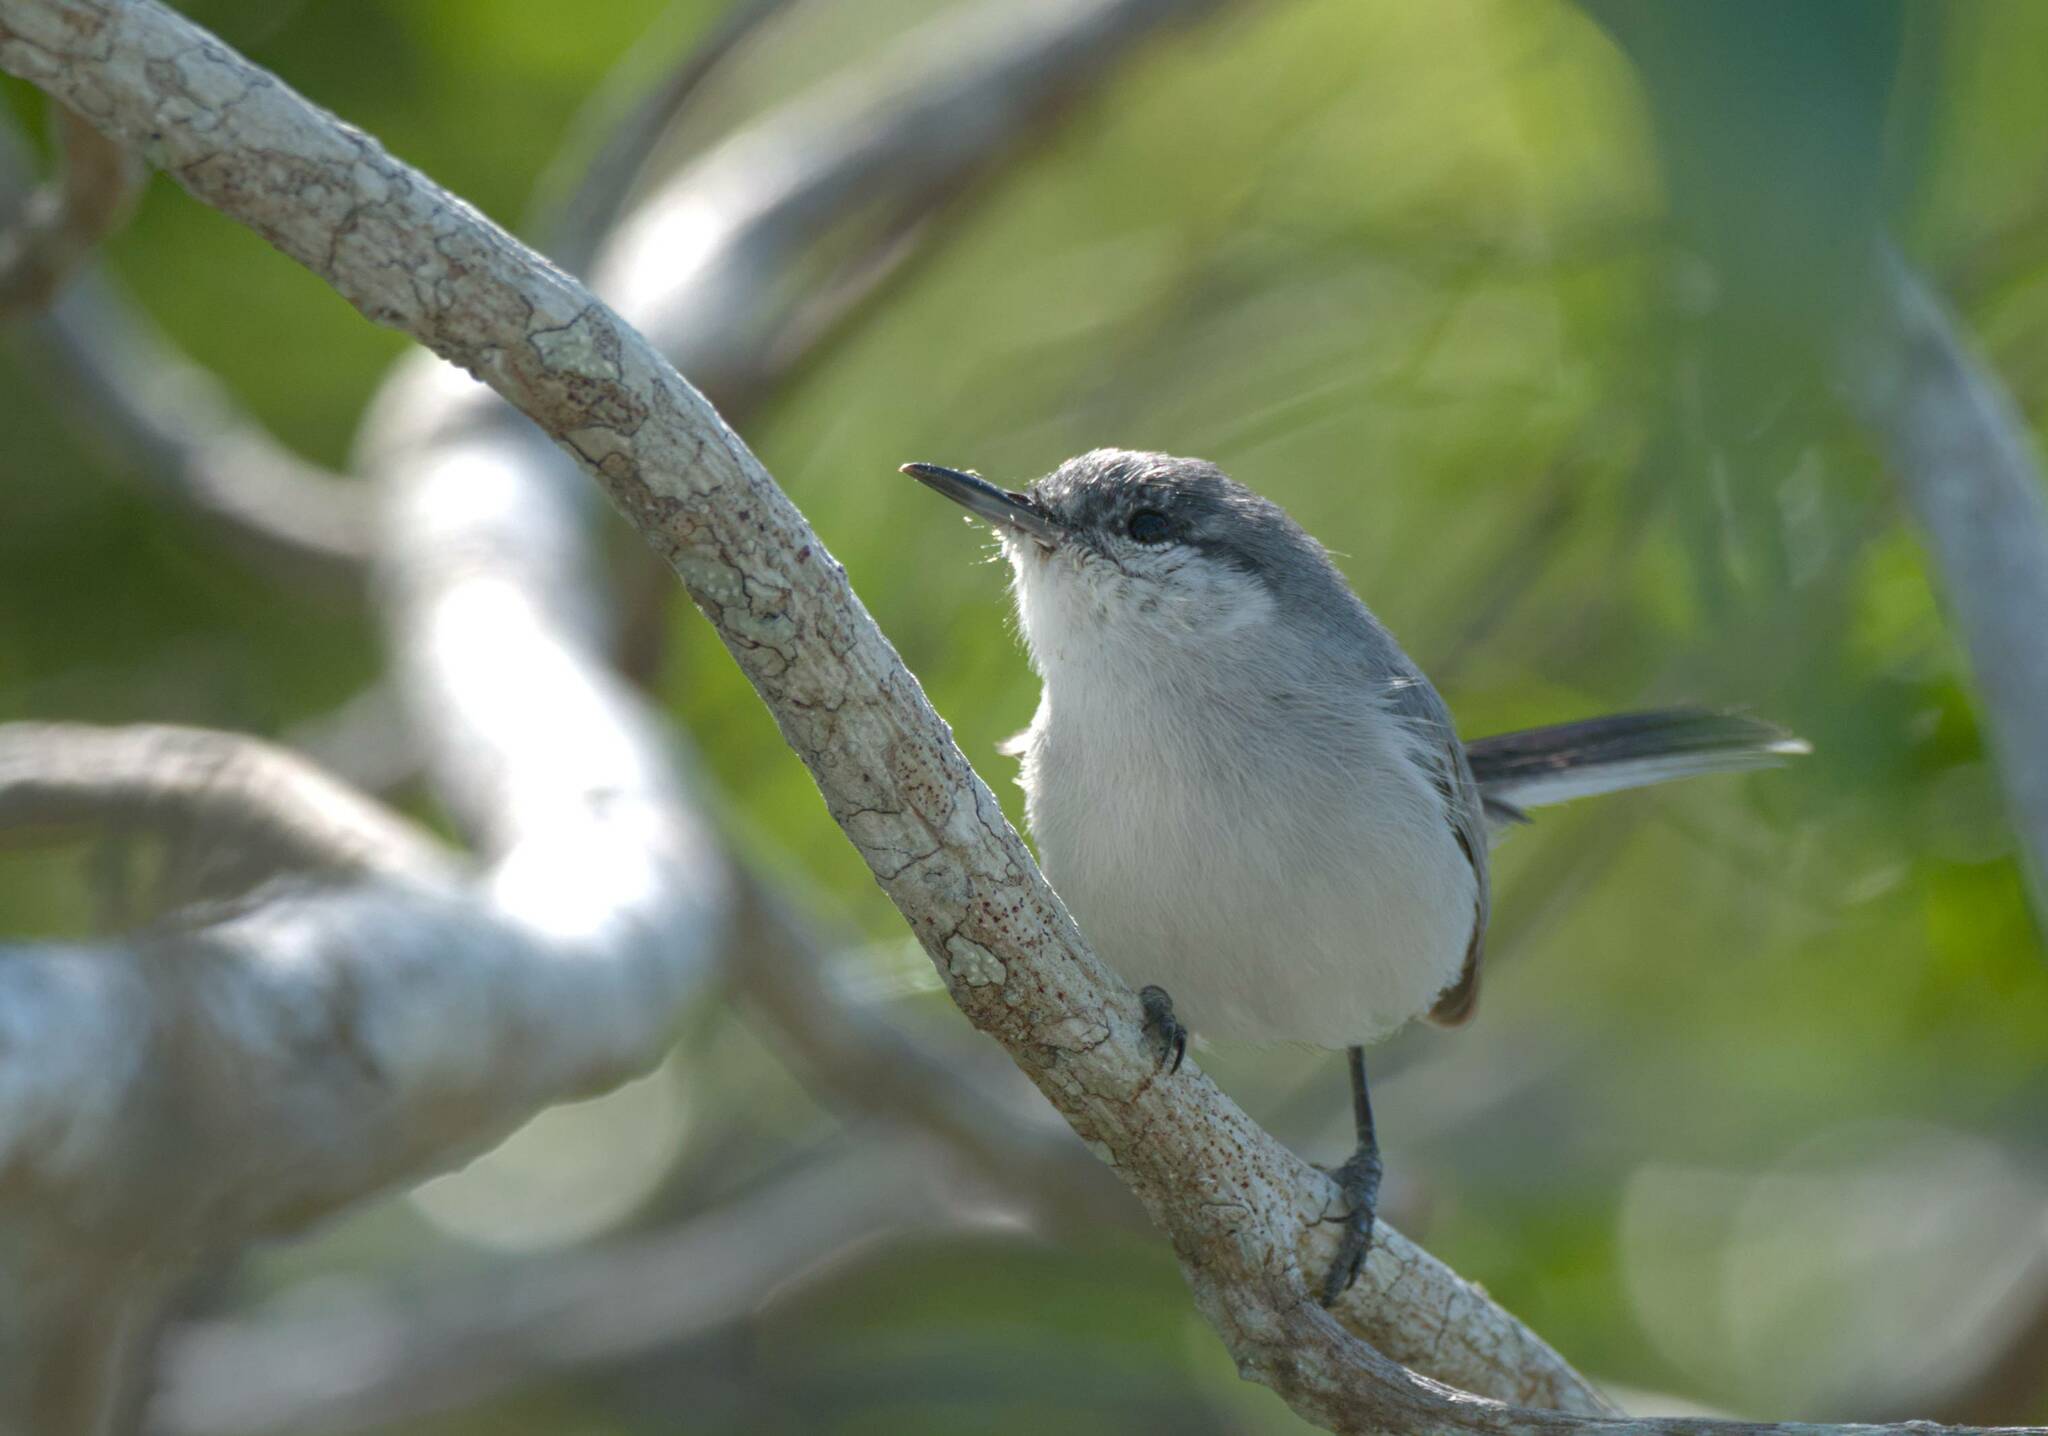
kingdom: Animalia
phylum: Chordata
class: Aves
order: Passeriformes
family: Polioptilidae
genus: Polioptila
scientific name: Polioptila albiventris
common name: Yucatan gnatcatcher
